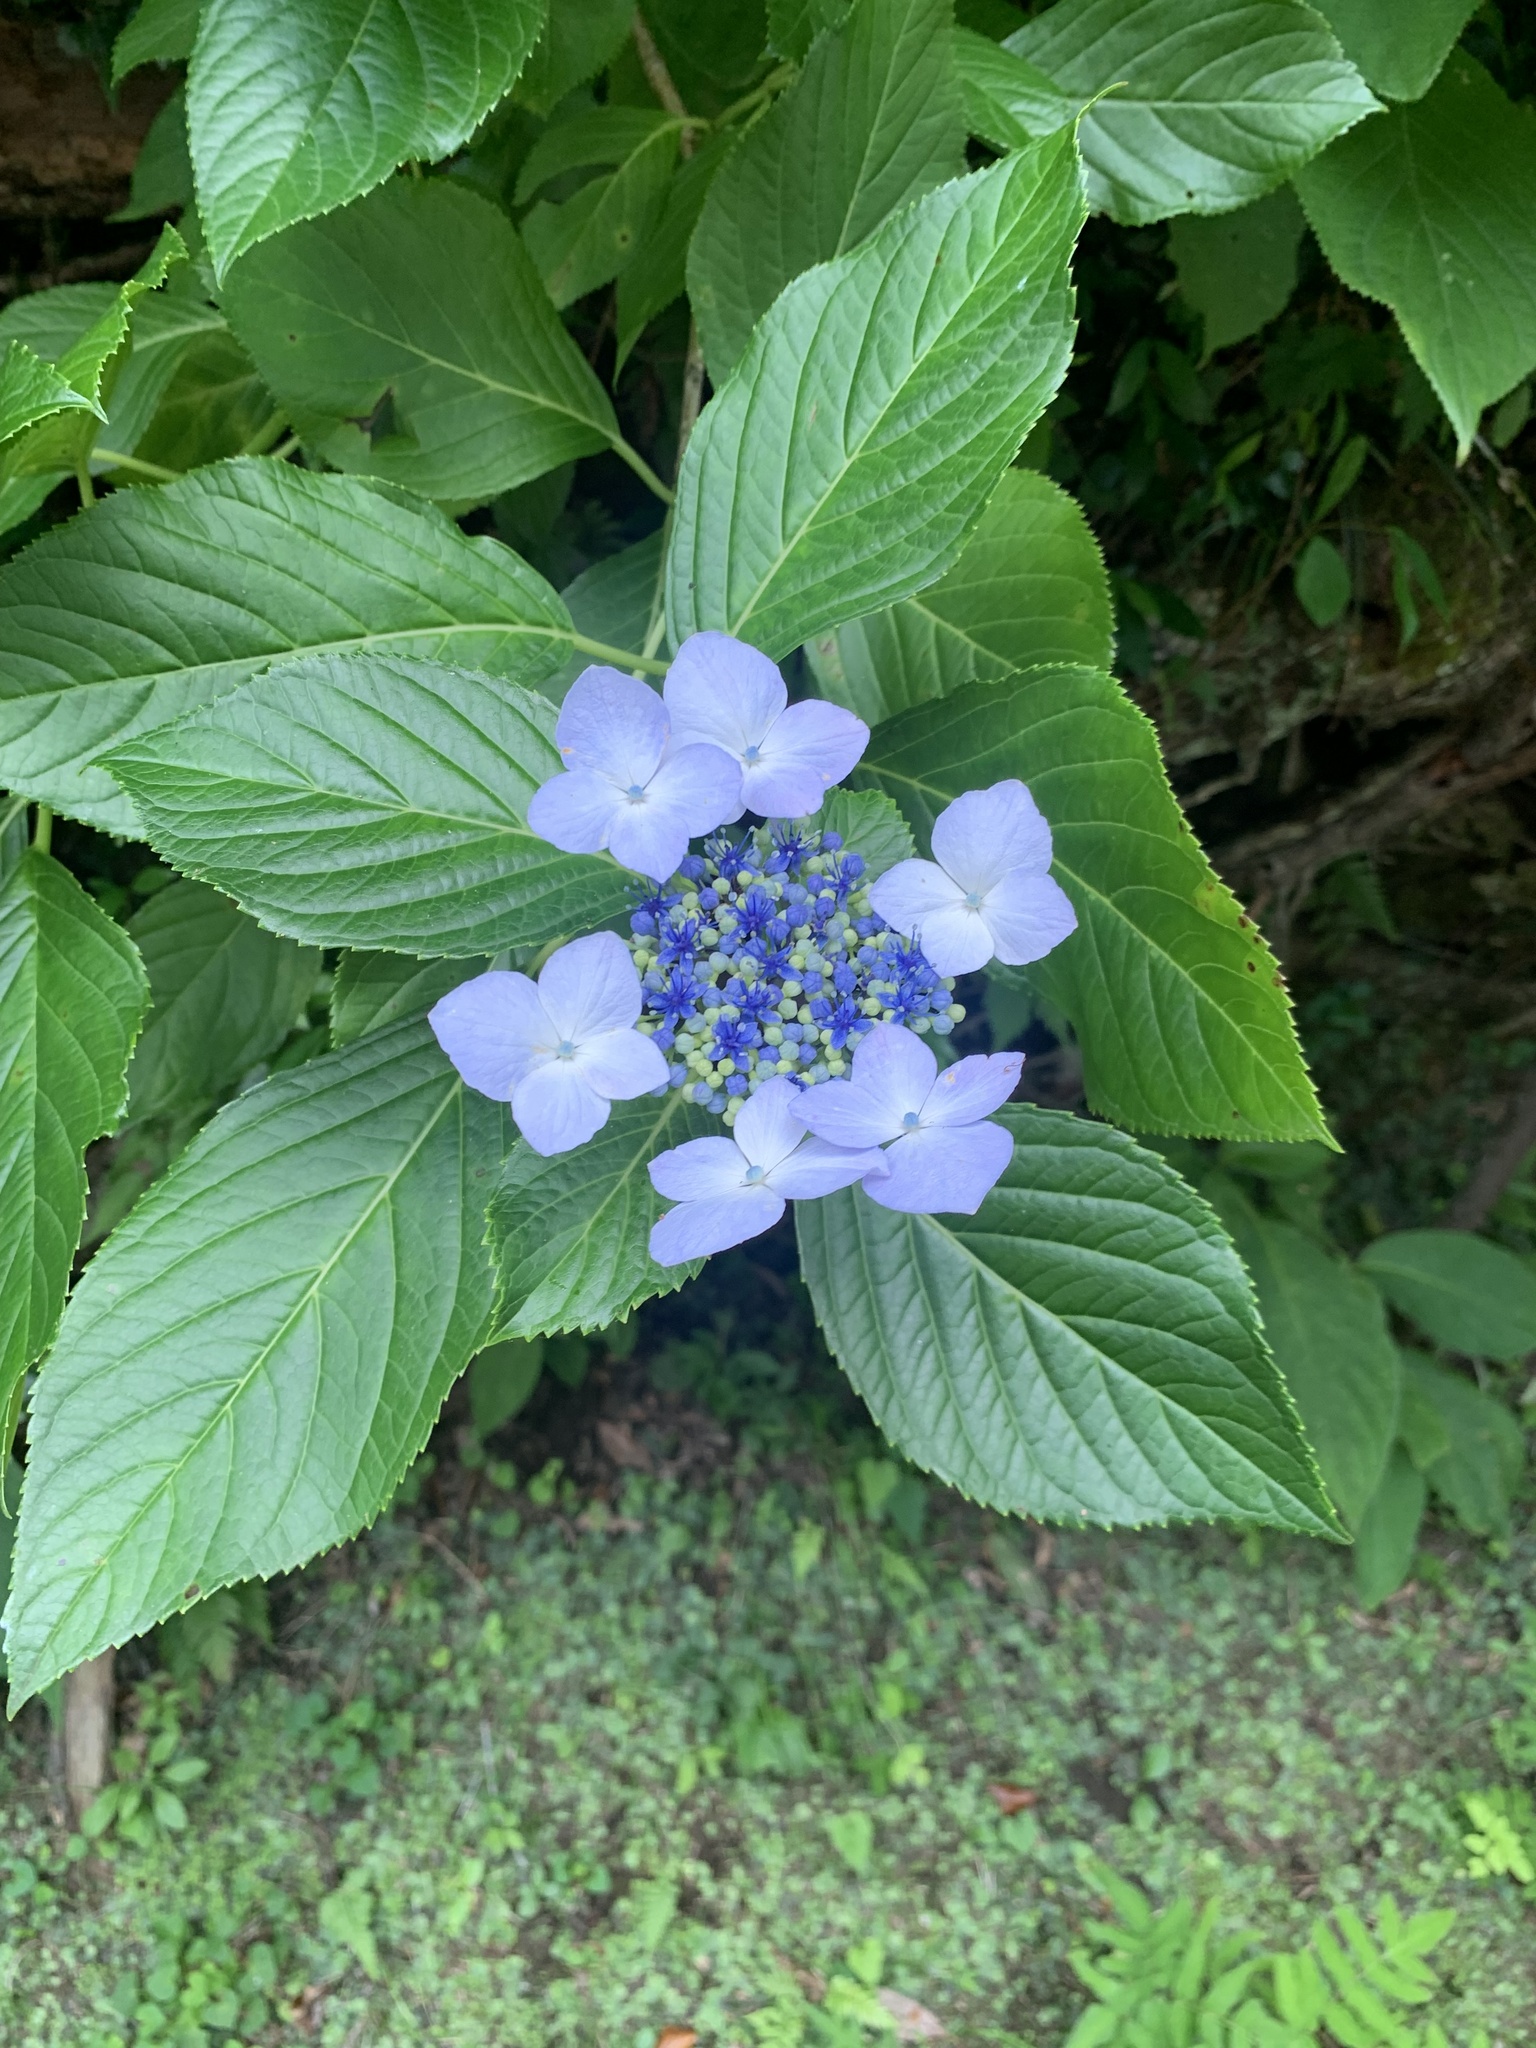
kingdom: Plantae
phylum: Tracheophyta
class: Magnoliopsida
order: Cornales
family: Hydrangeaceae
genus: Hydrangea
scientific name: Hydrangea macrophylla
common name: Hydrangea
